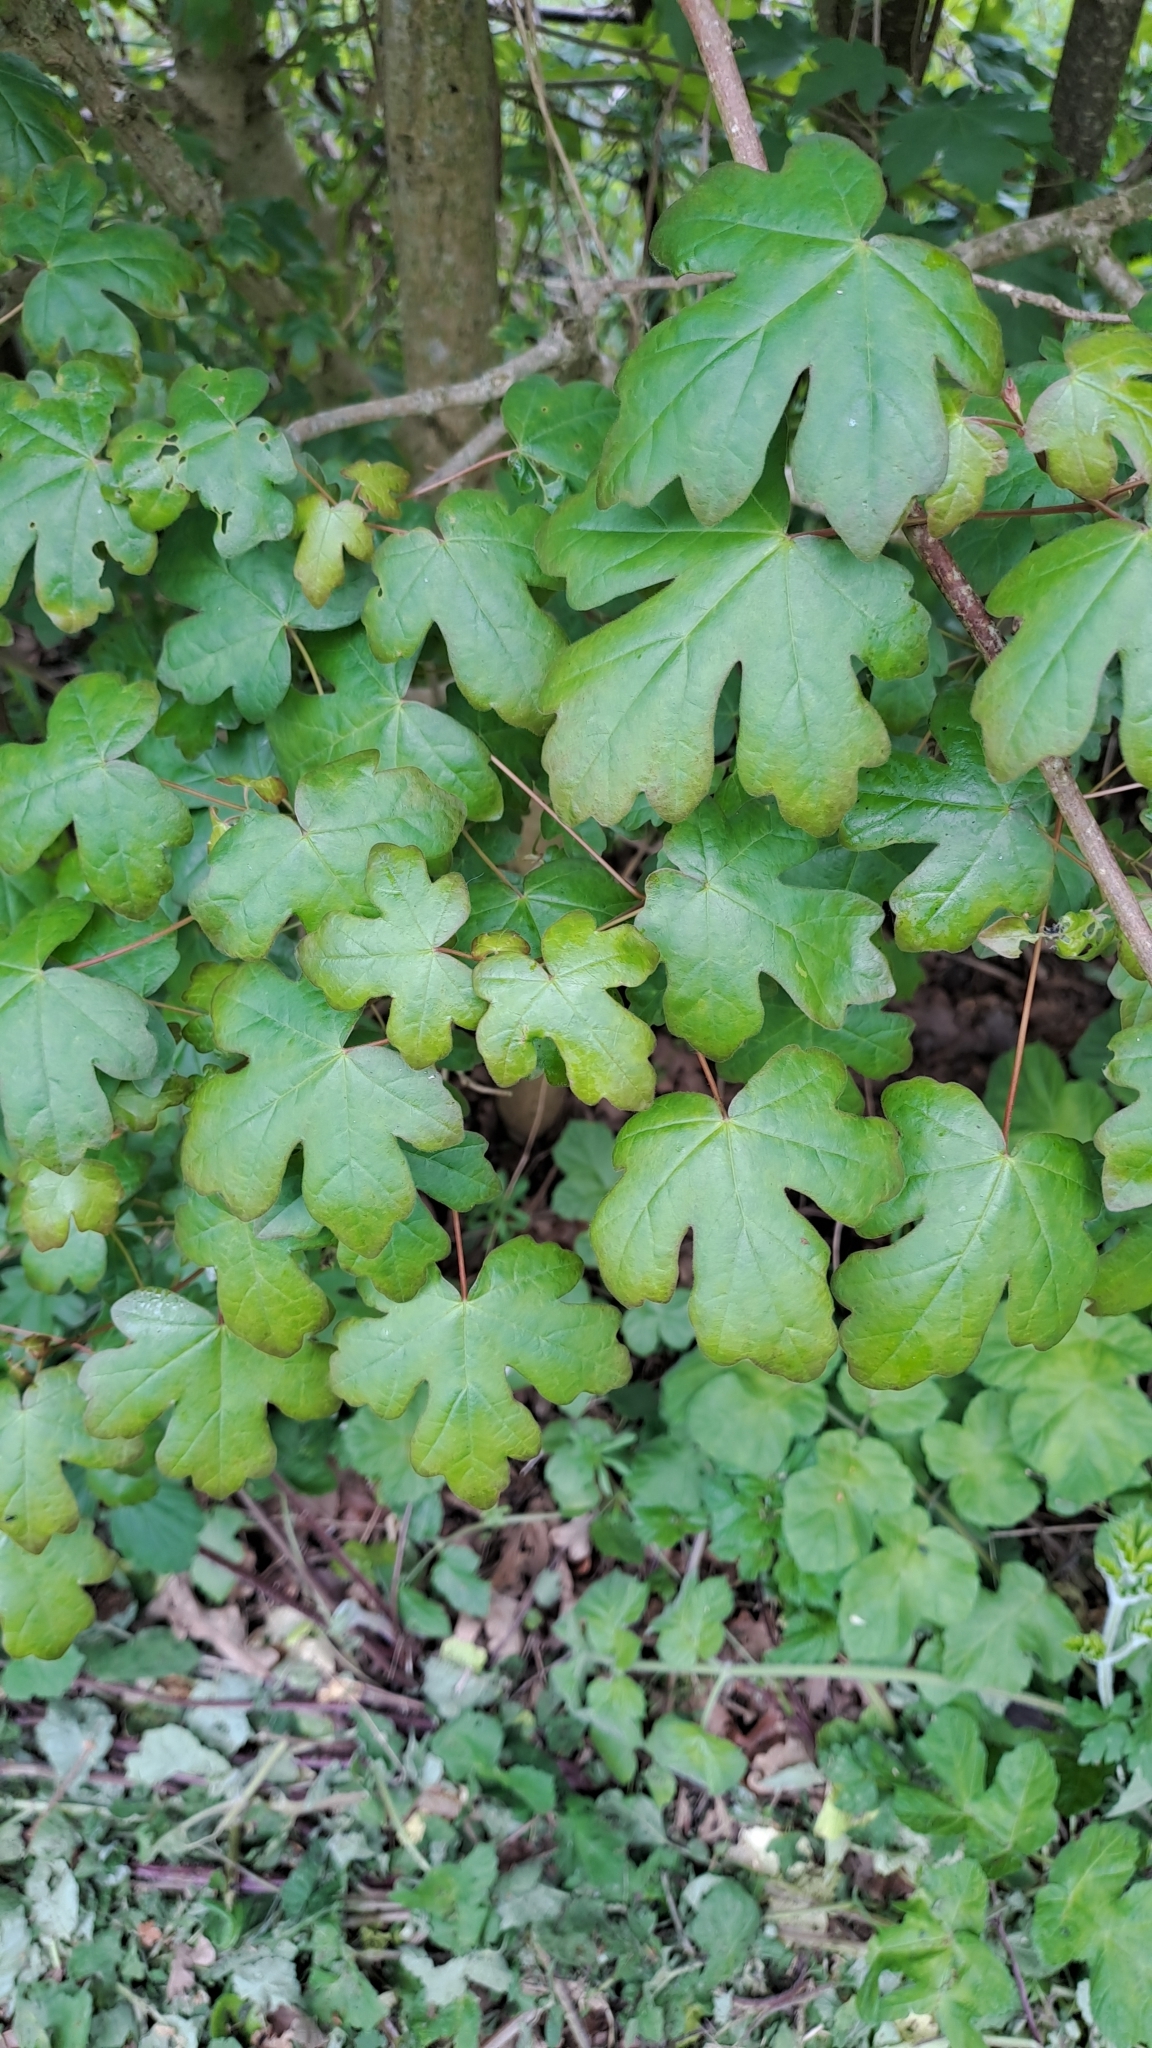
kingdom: Plantae
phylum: Tracheophyta
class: Magnoliopsida
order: Sapindales
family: Sapindaceae
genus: Acer
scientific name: Acer campestre
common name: Field maple
